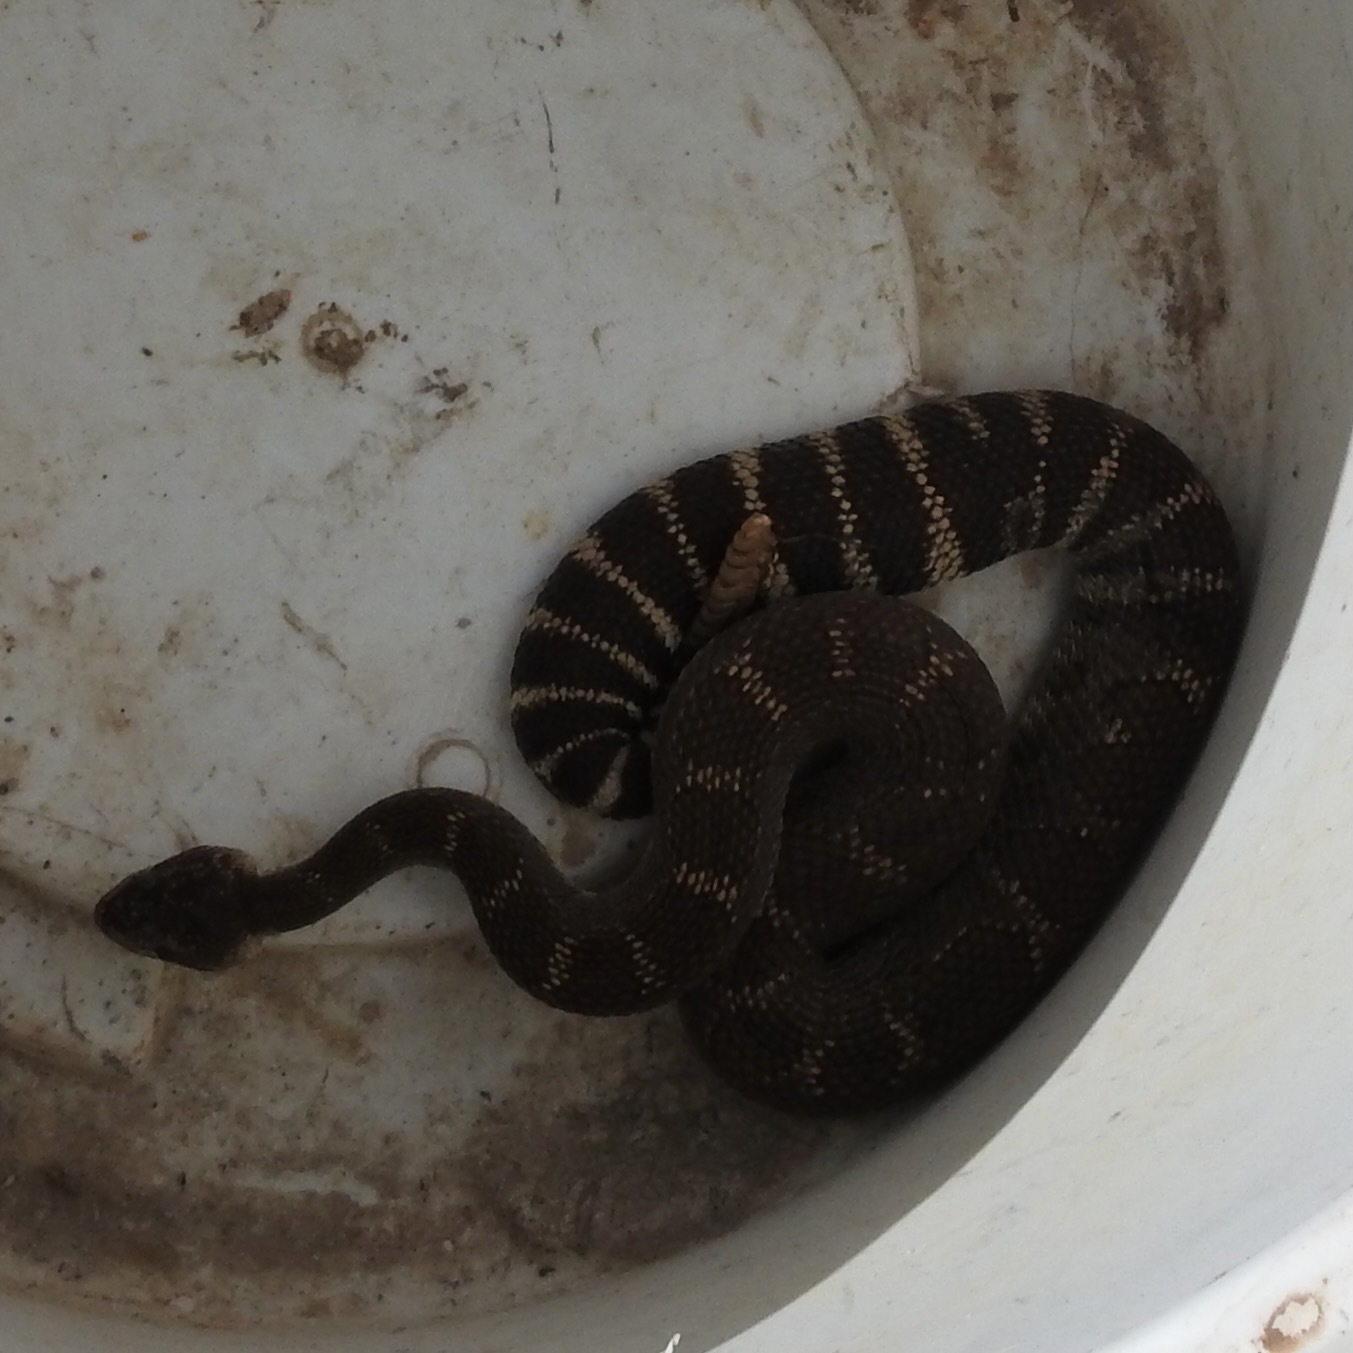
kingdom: Animalia
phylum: Chordata
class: Squamata
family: Viperidae
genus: Crotalus
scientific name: Crotalus oreganus
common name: Abyssus
